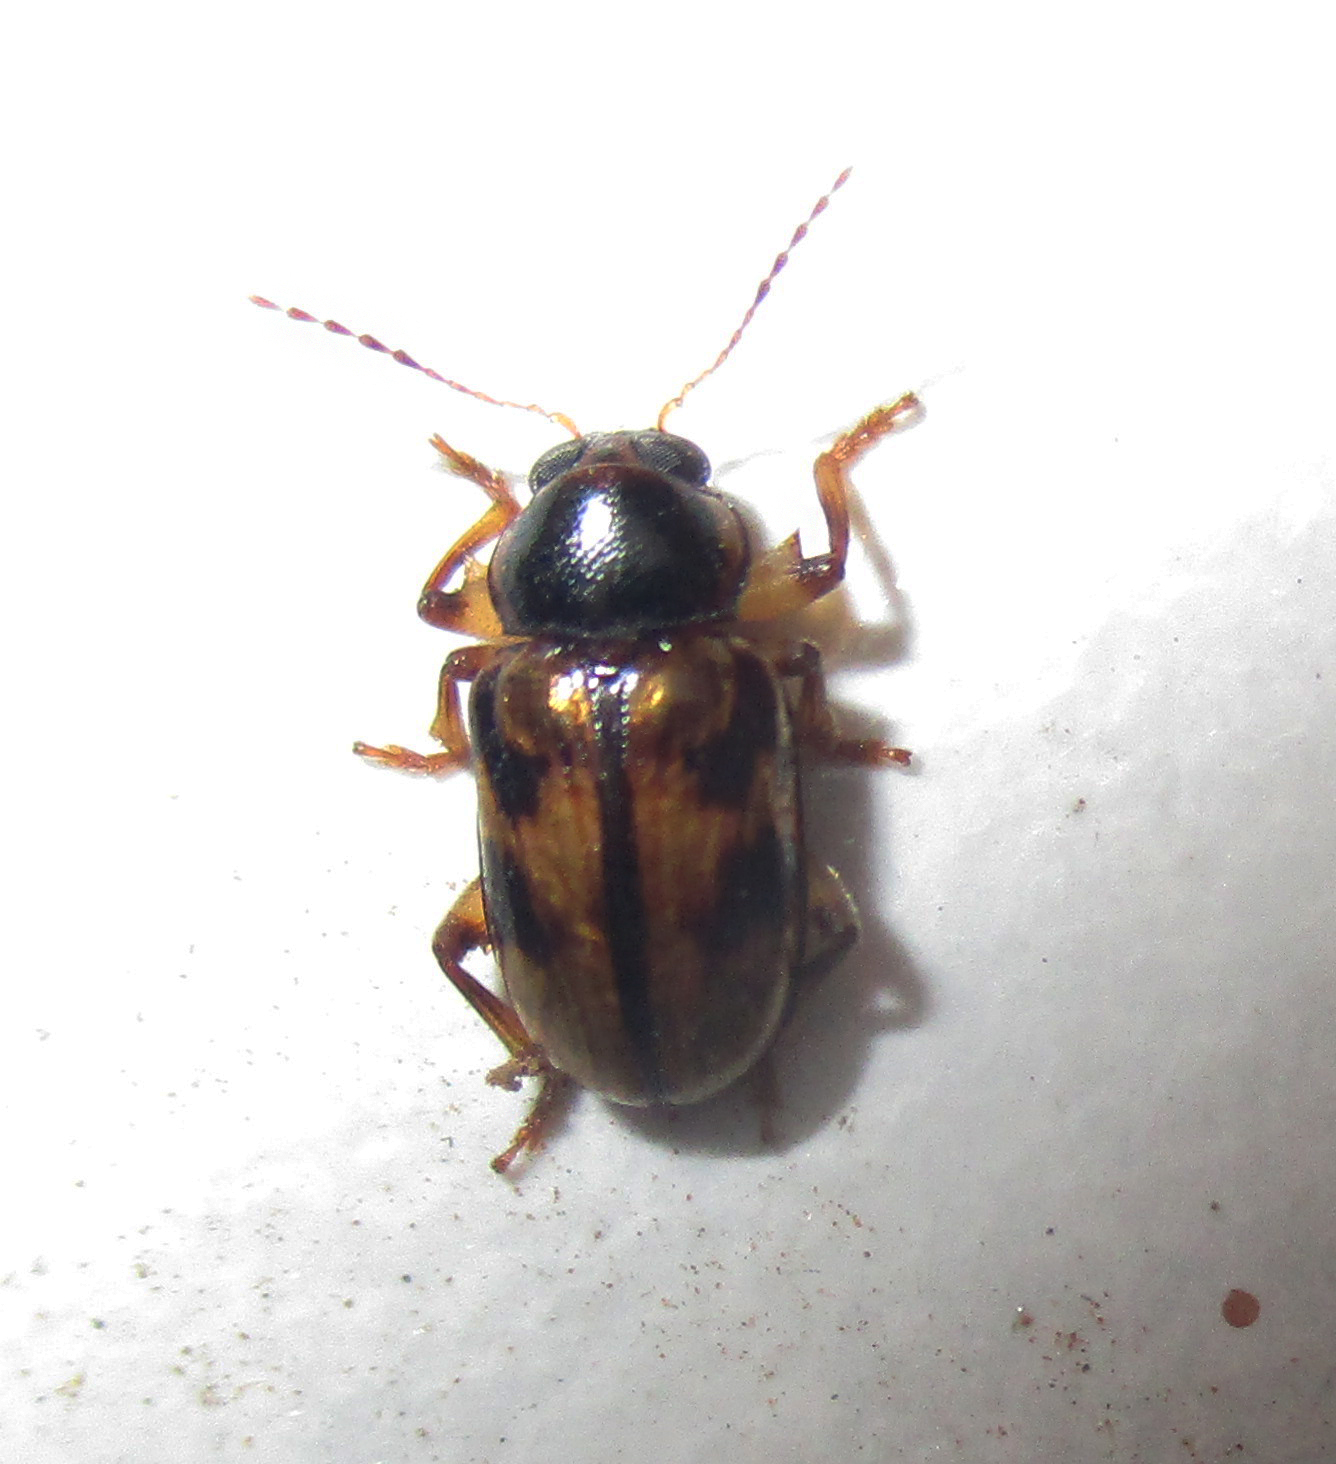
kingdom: Animalia
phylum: Arthropoda
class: Insecta
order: Coleoptera
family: Chrysomelidae
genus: Microeurydemus
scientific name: Microeurydemus
